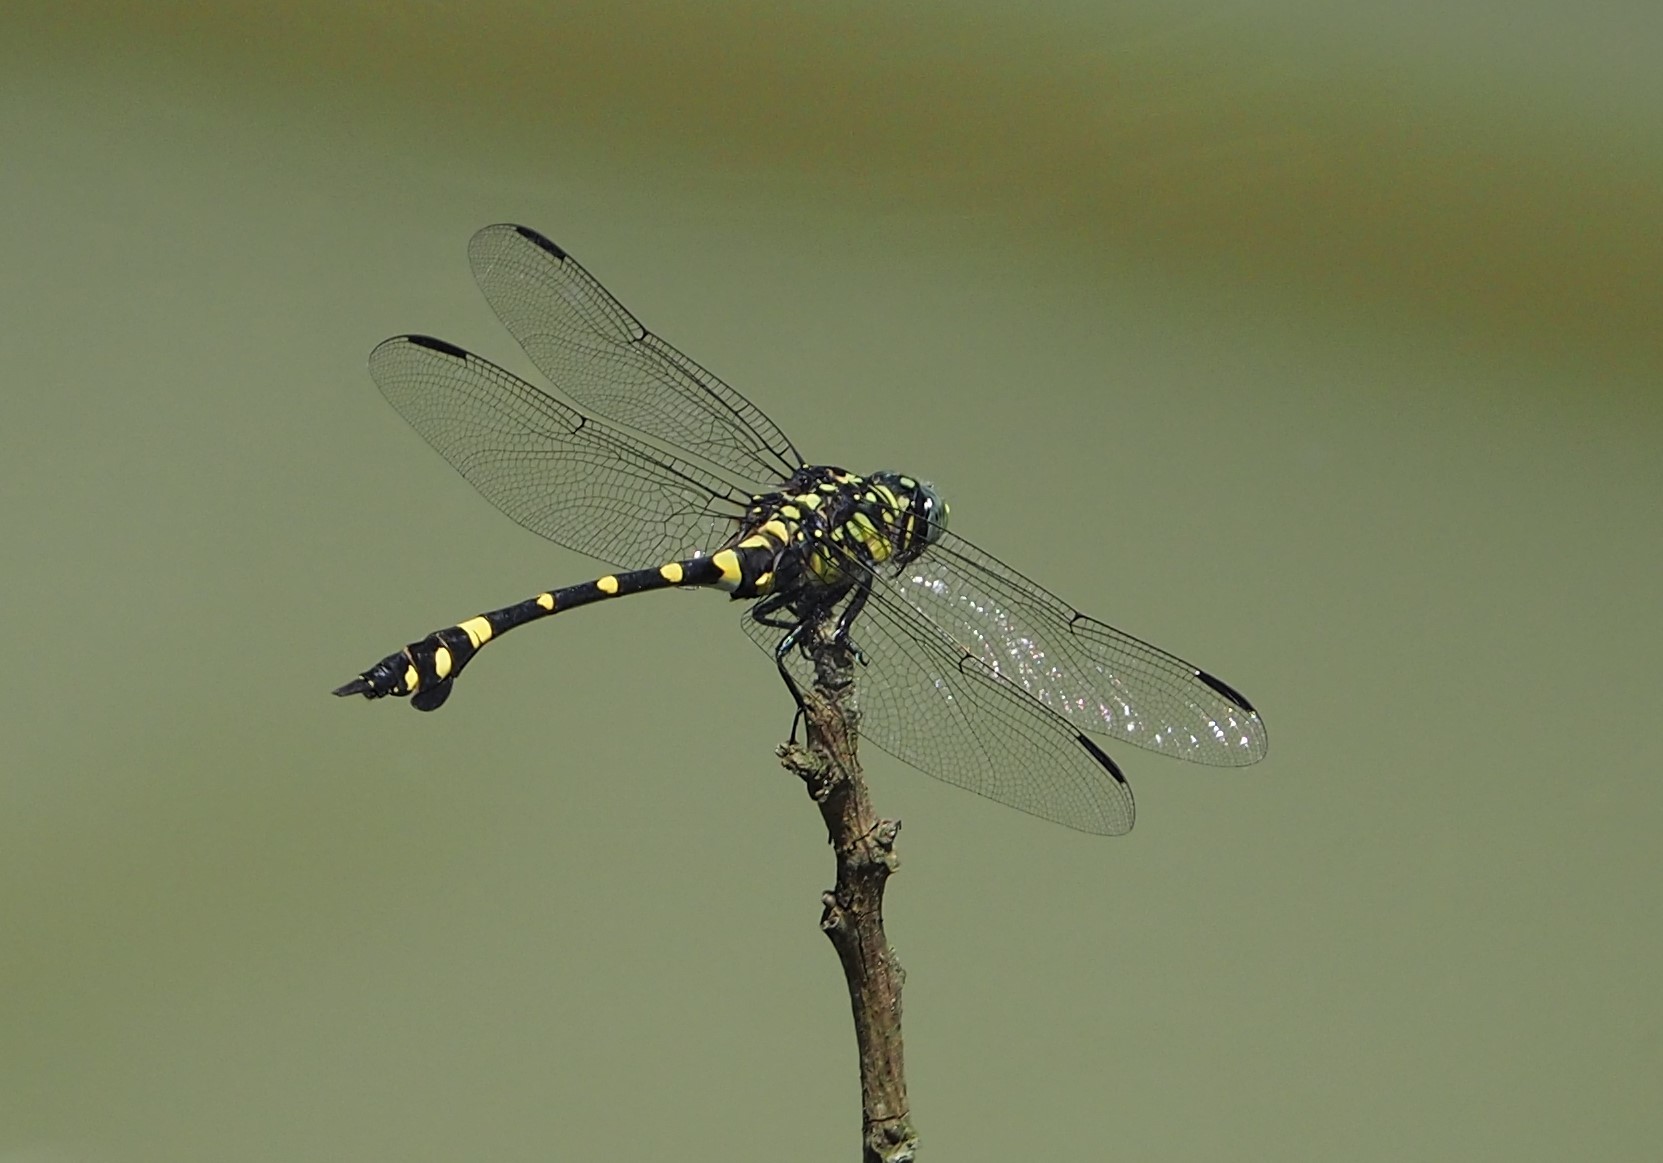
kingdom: Animalia
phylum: Arthropoda
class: Insecta
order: Odonata
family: Gomphidae
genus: Ictinogomphus
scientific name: Ictinogomphus rapax
